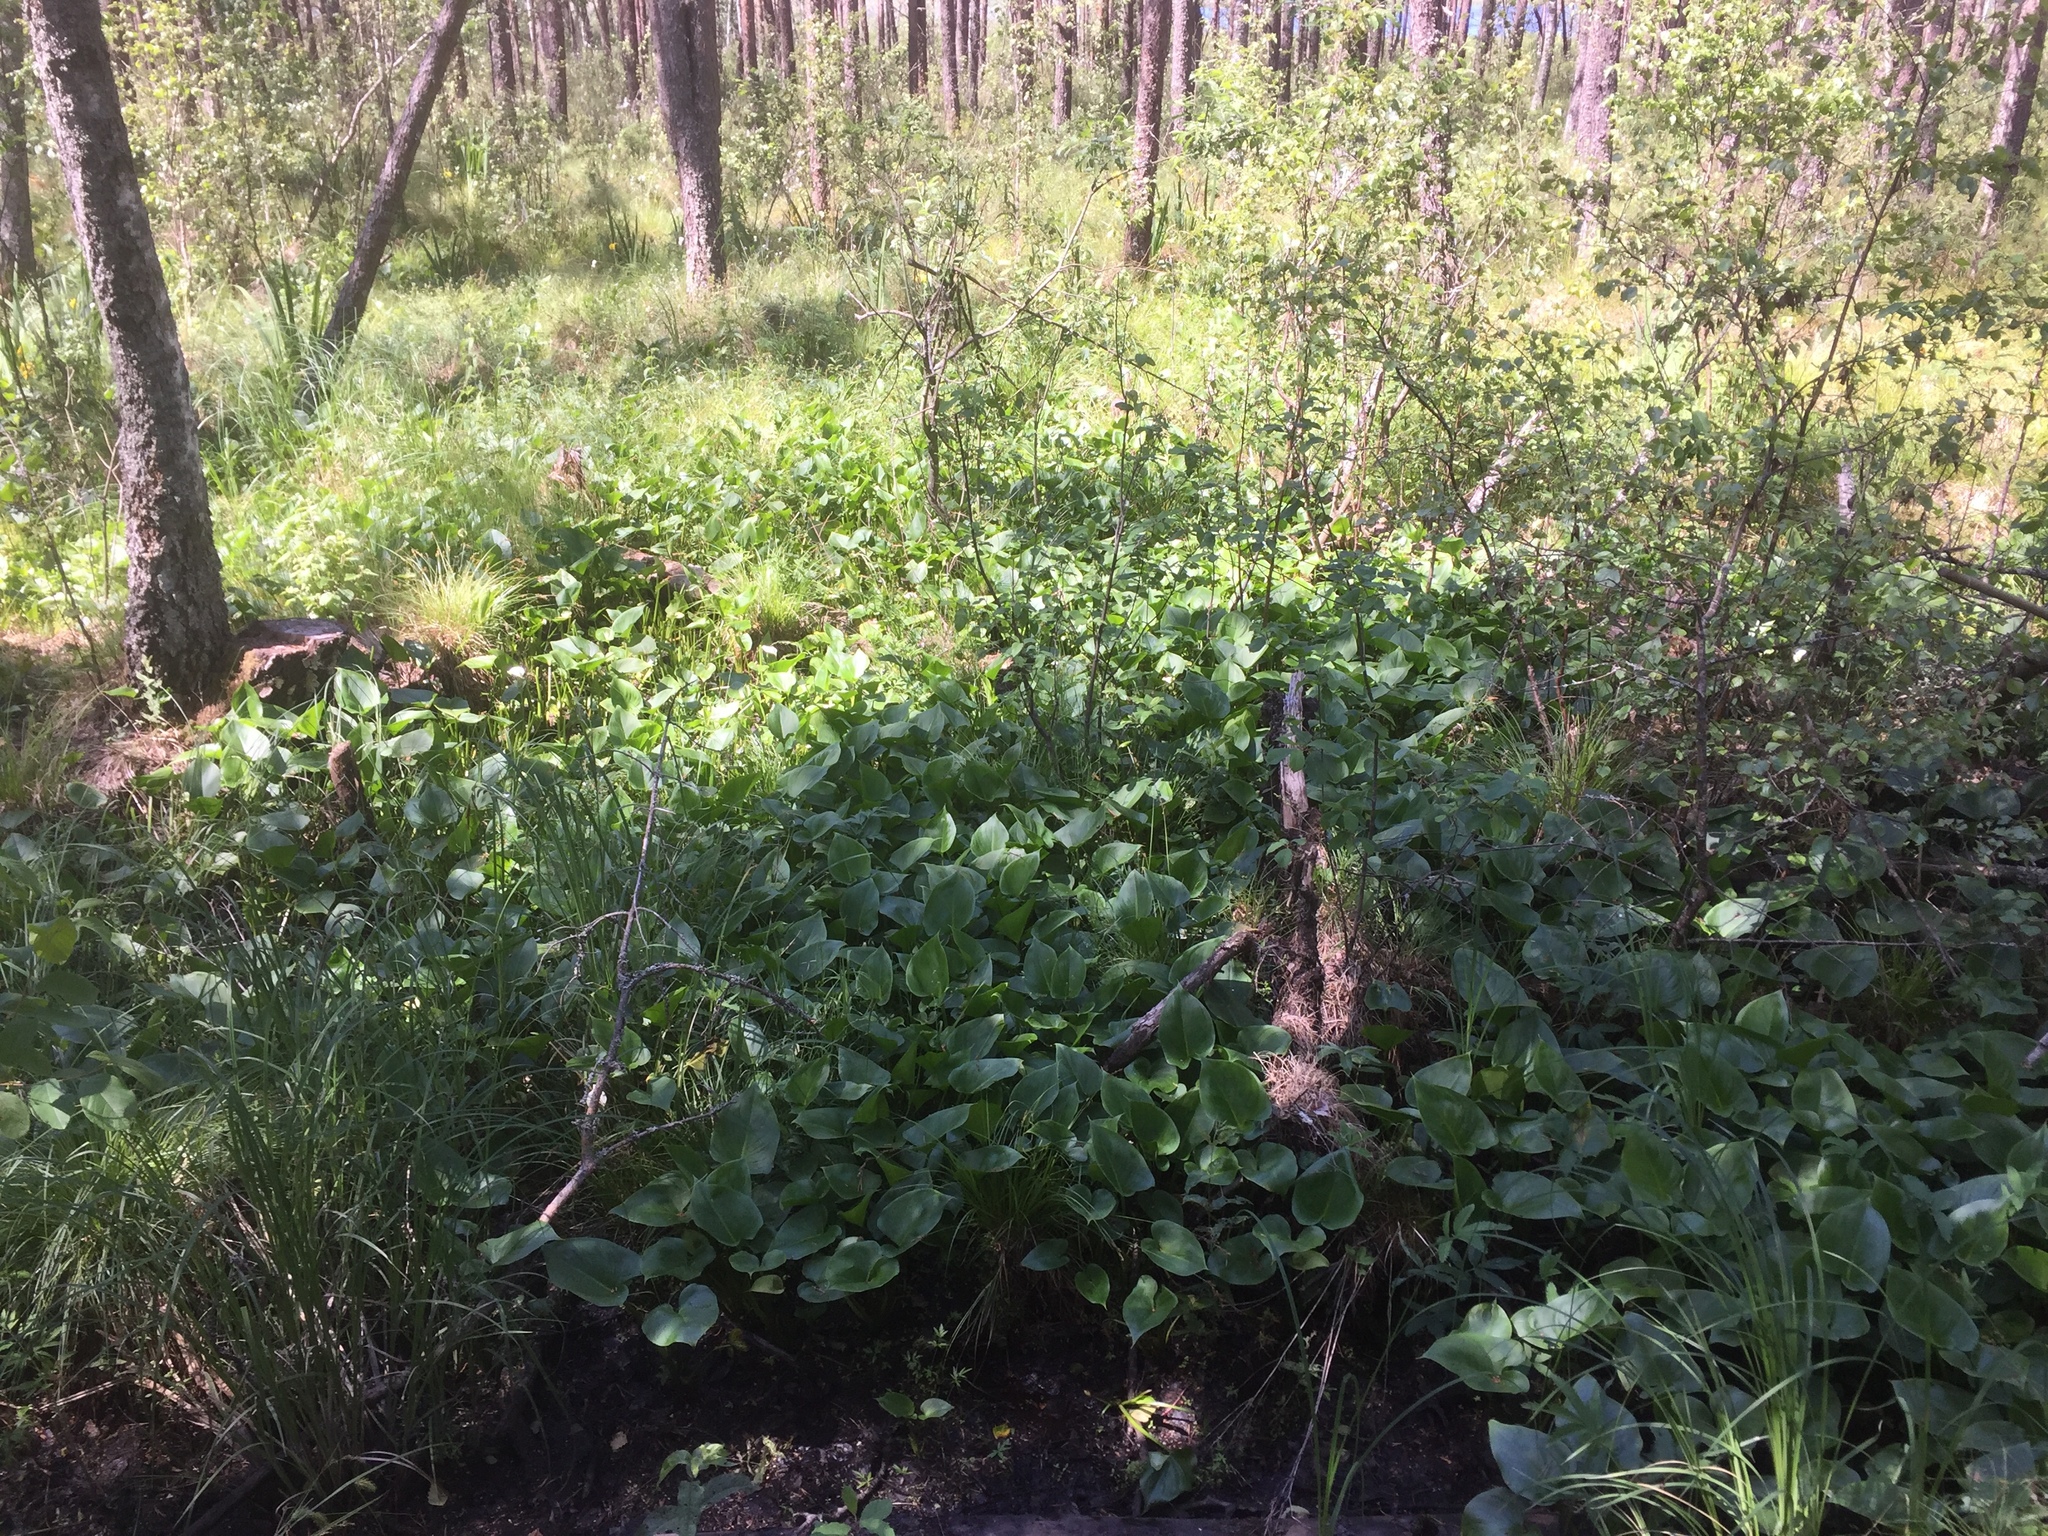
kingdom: Plantae
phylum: Tracheophyta
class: Liliopsida
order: Alismatales
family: Araceae
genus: Calla
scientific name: Calla palustris
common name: Bog arum
